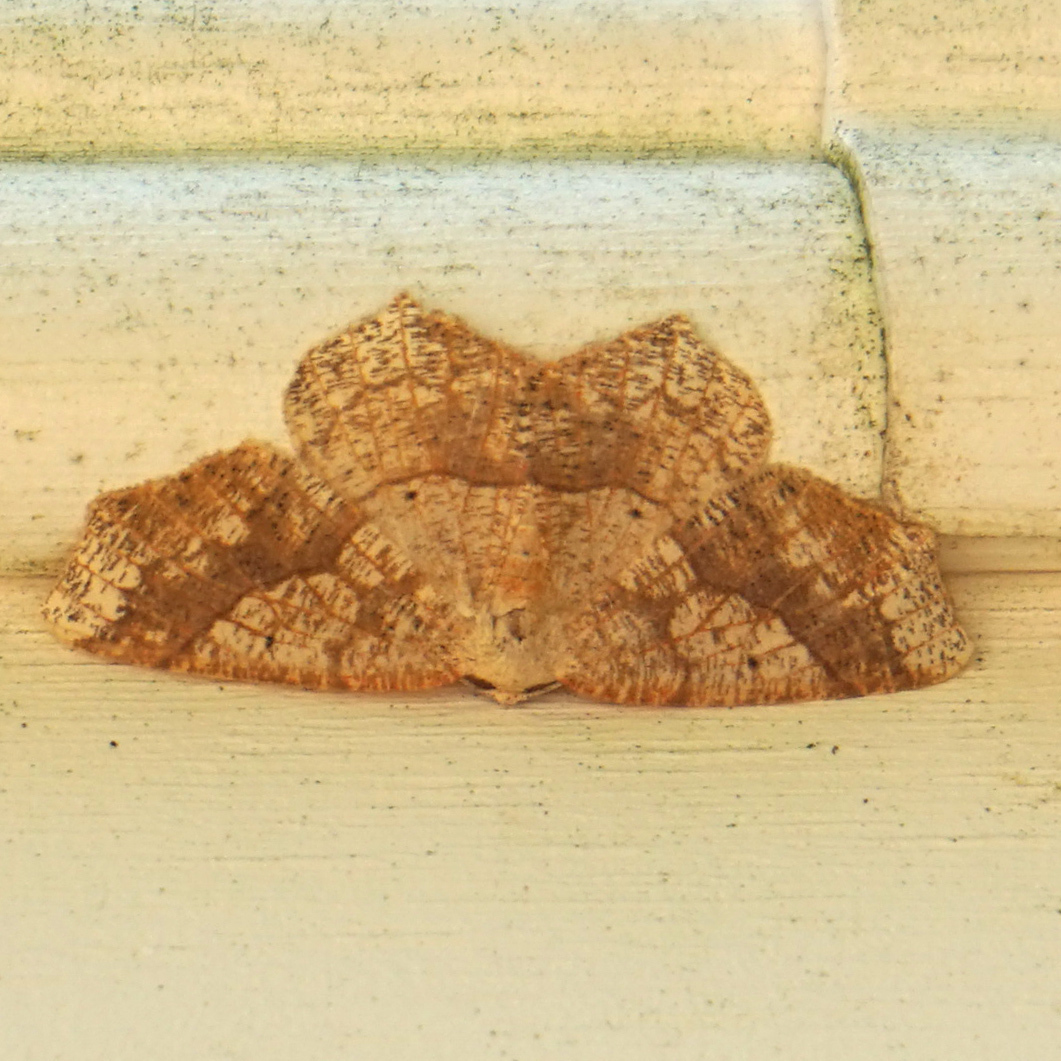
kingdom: Animalia
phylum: Arthropoda
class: Insecta
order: Lepidoptera
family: Geometridae
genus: Besma
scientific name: Besma quercivoraria
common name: Oak besma
